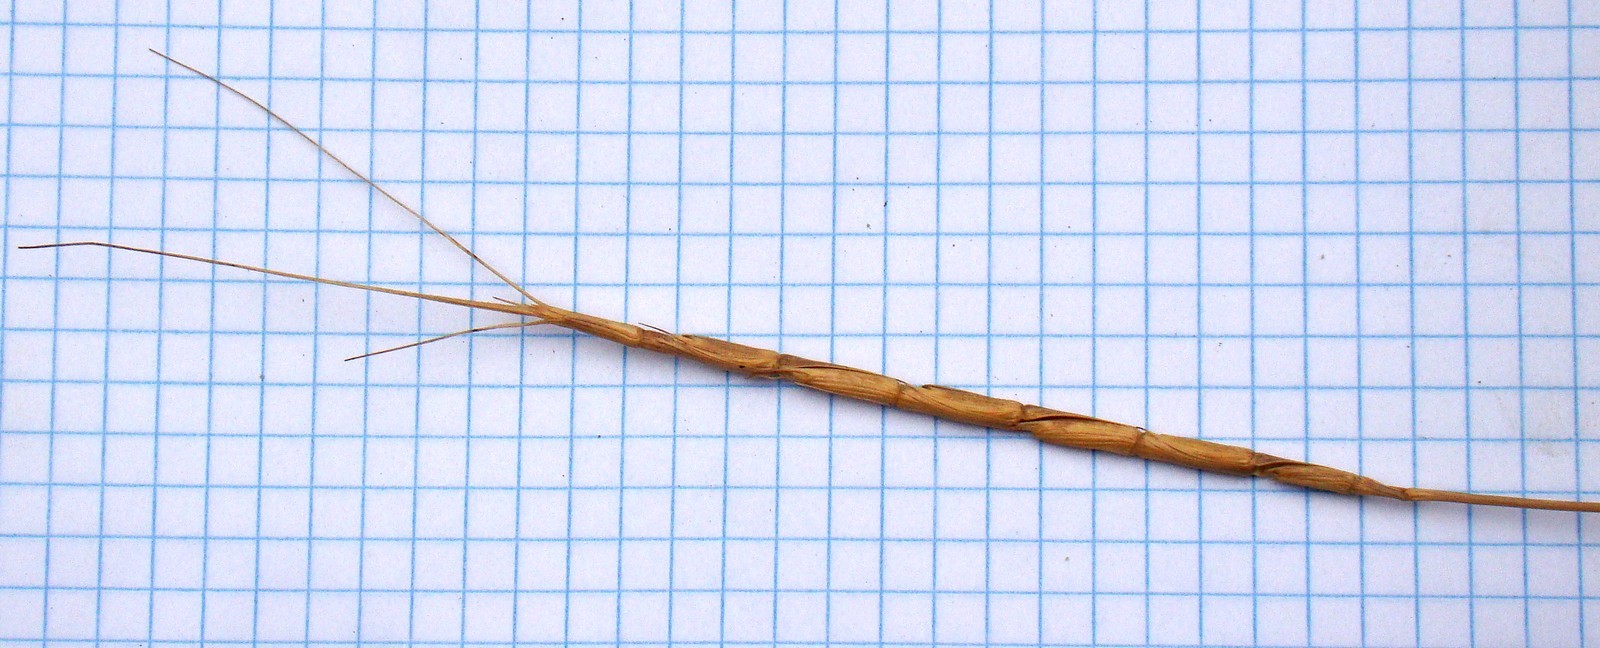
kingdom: Plantae
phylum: Tracheophyta
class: Liliopsida
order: Poales
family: Poaceae
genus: Aegilops
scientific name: Aegilops cylindrica
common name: Jointed goatgrass
